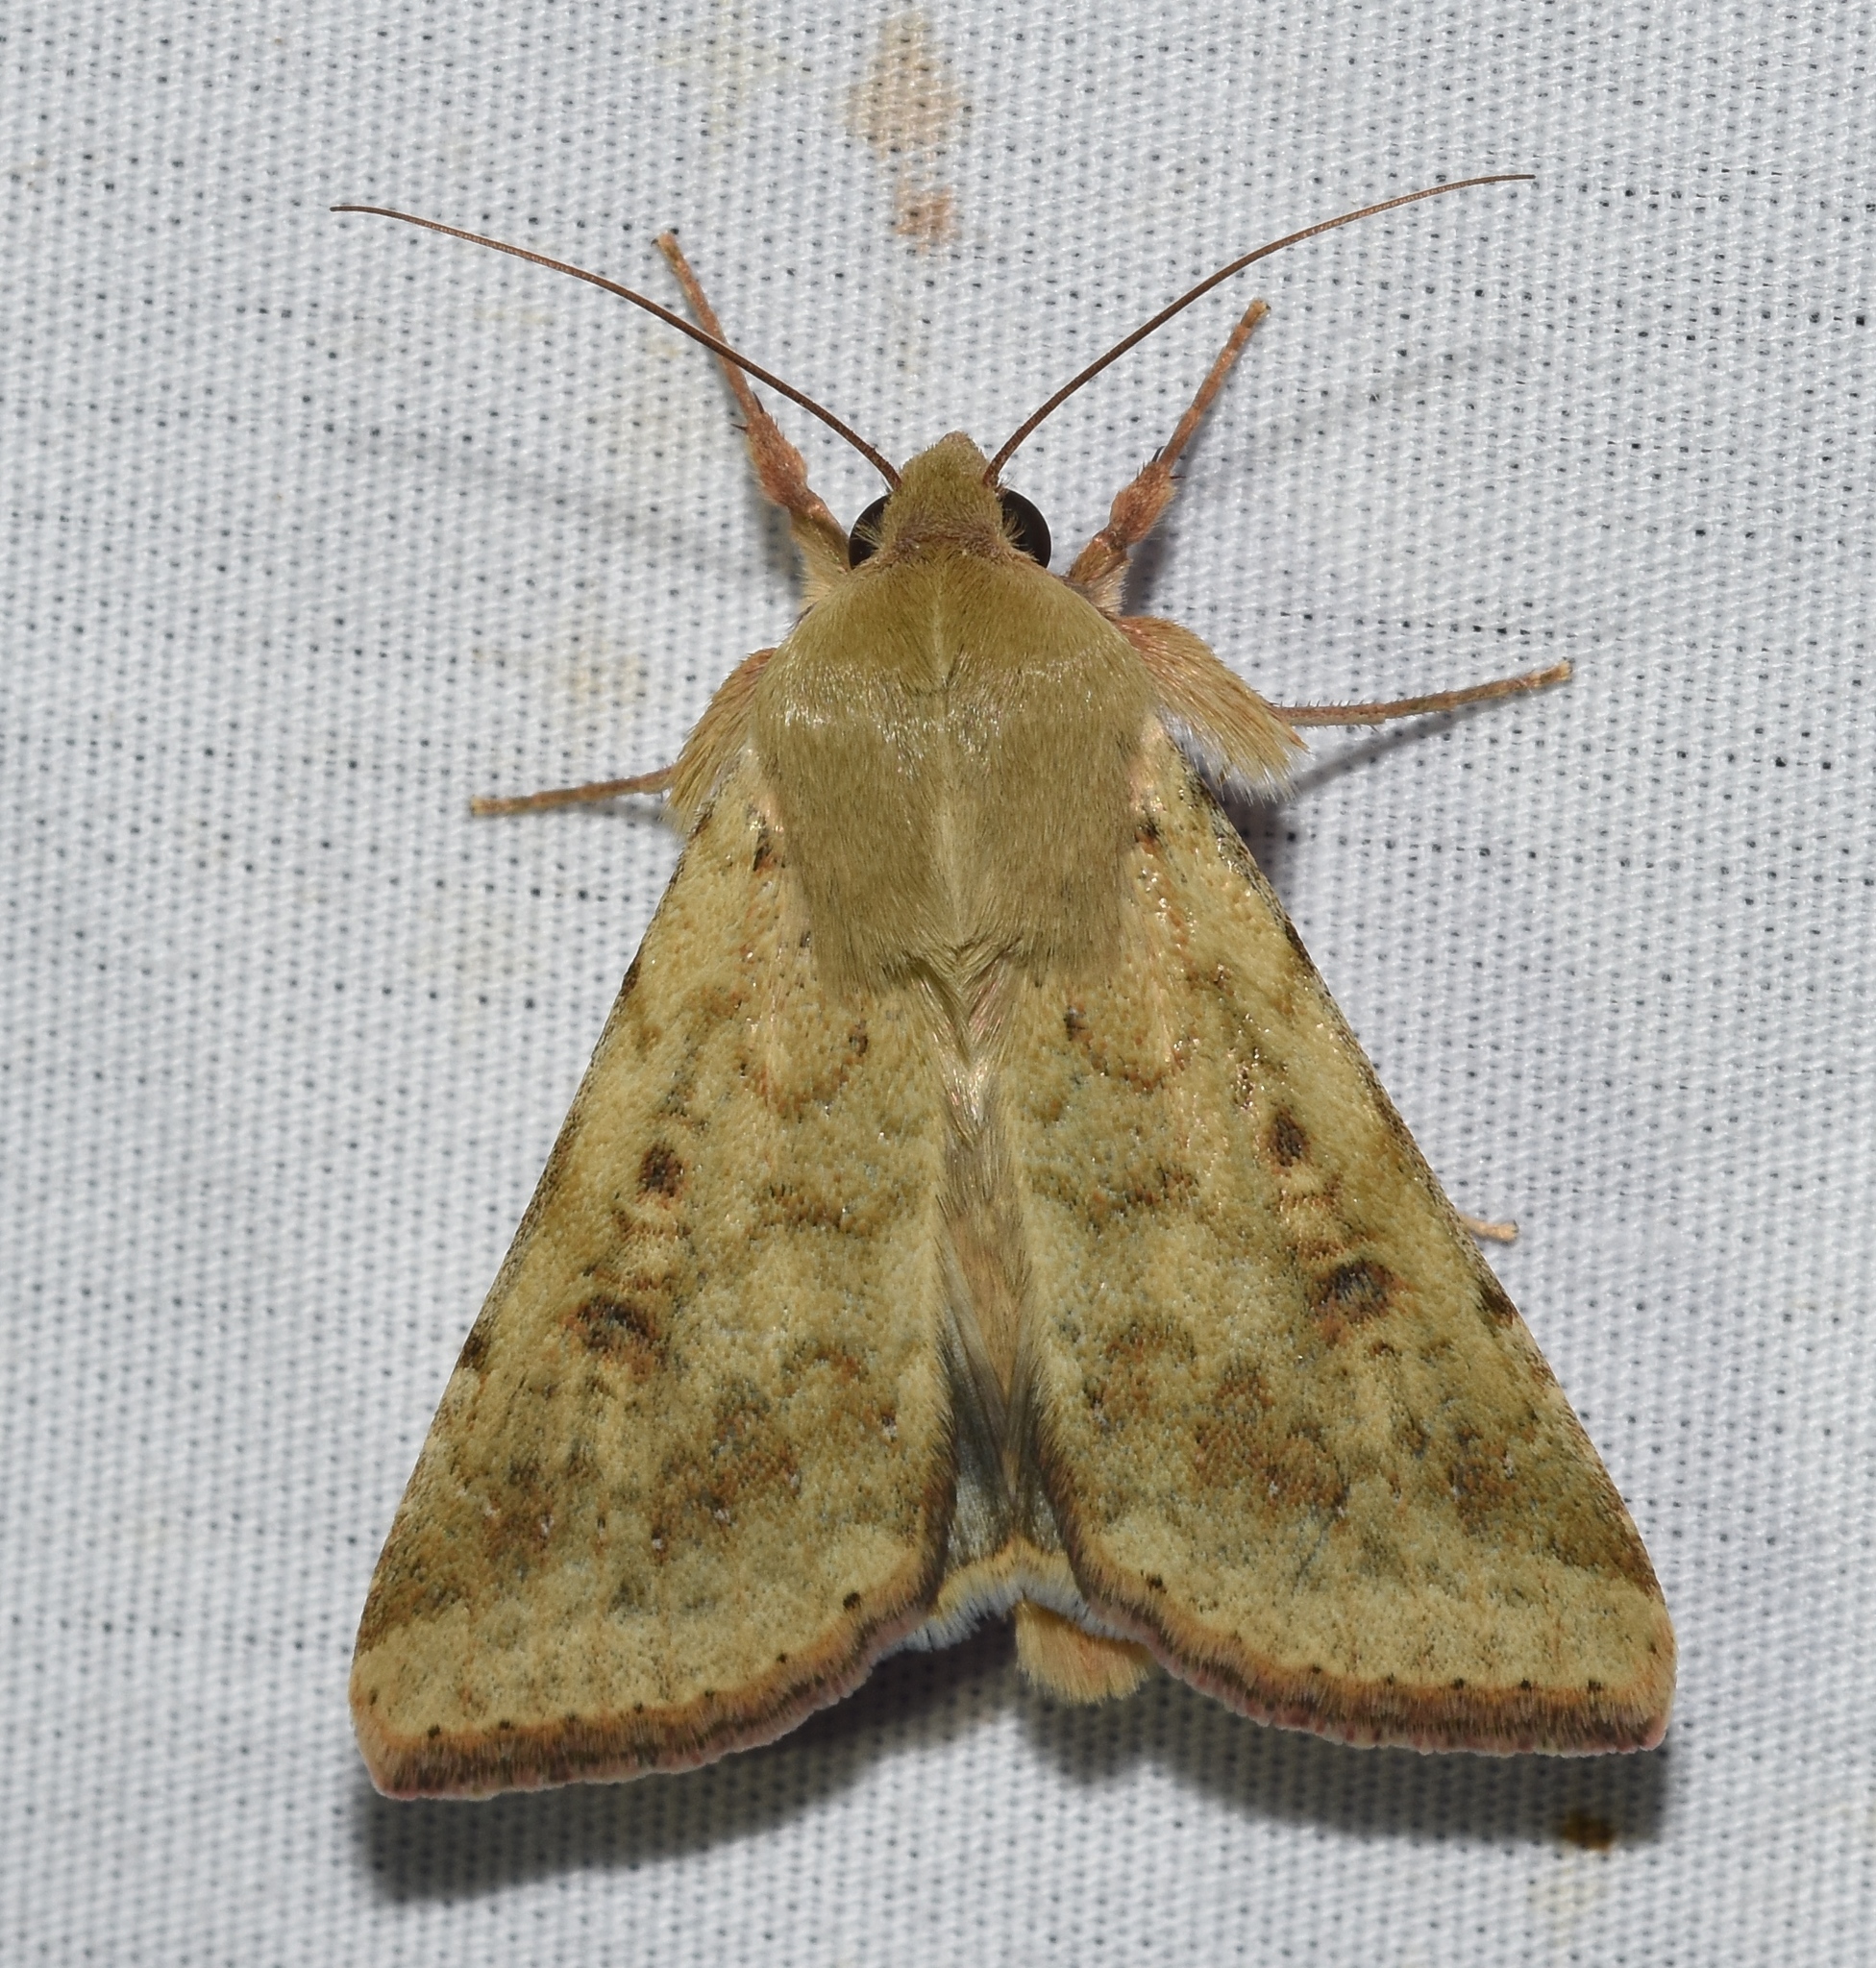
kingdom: Animalia
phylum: Arthropoda
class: Insecta
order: Lepidoptera
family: Noctuidae
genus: Helicoverpa
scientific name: Helicoverpa zea
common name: Bollworm
